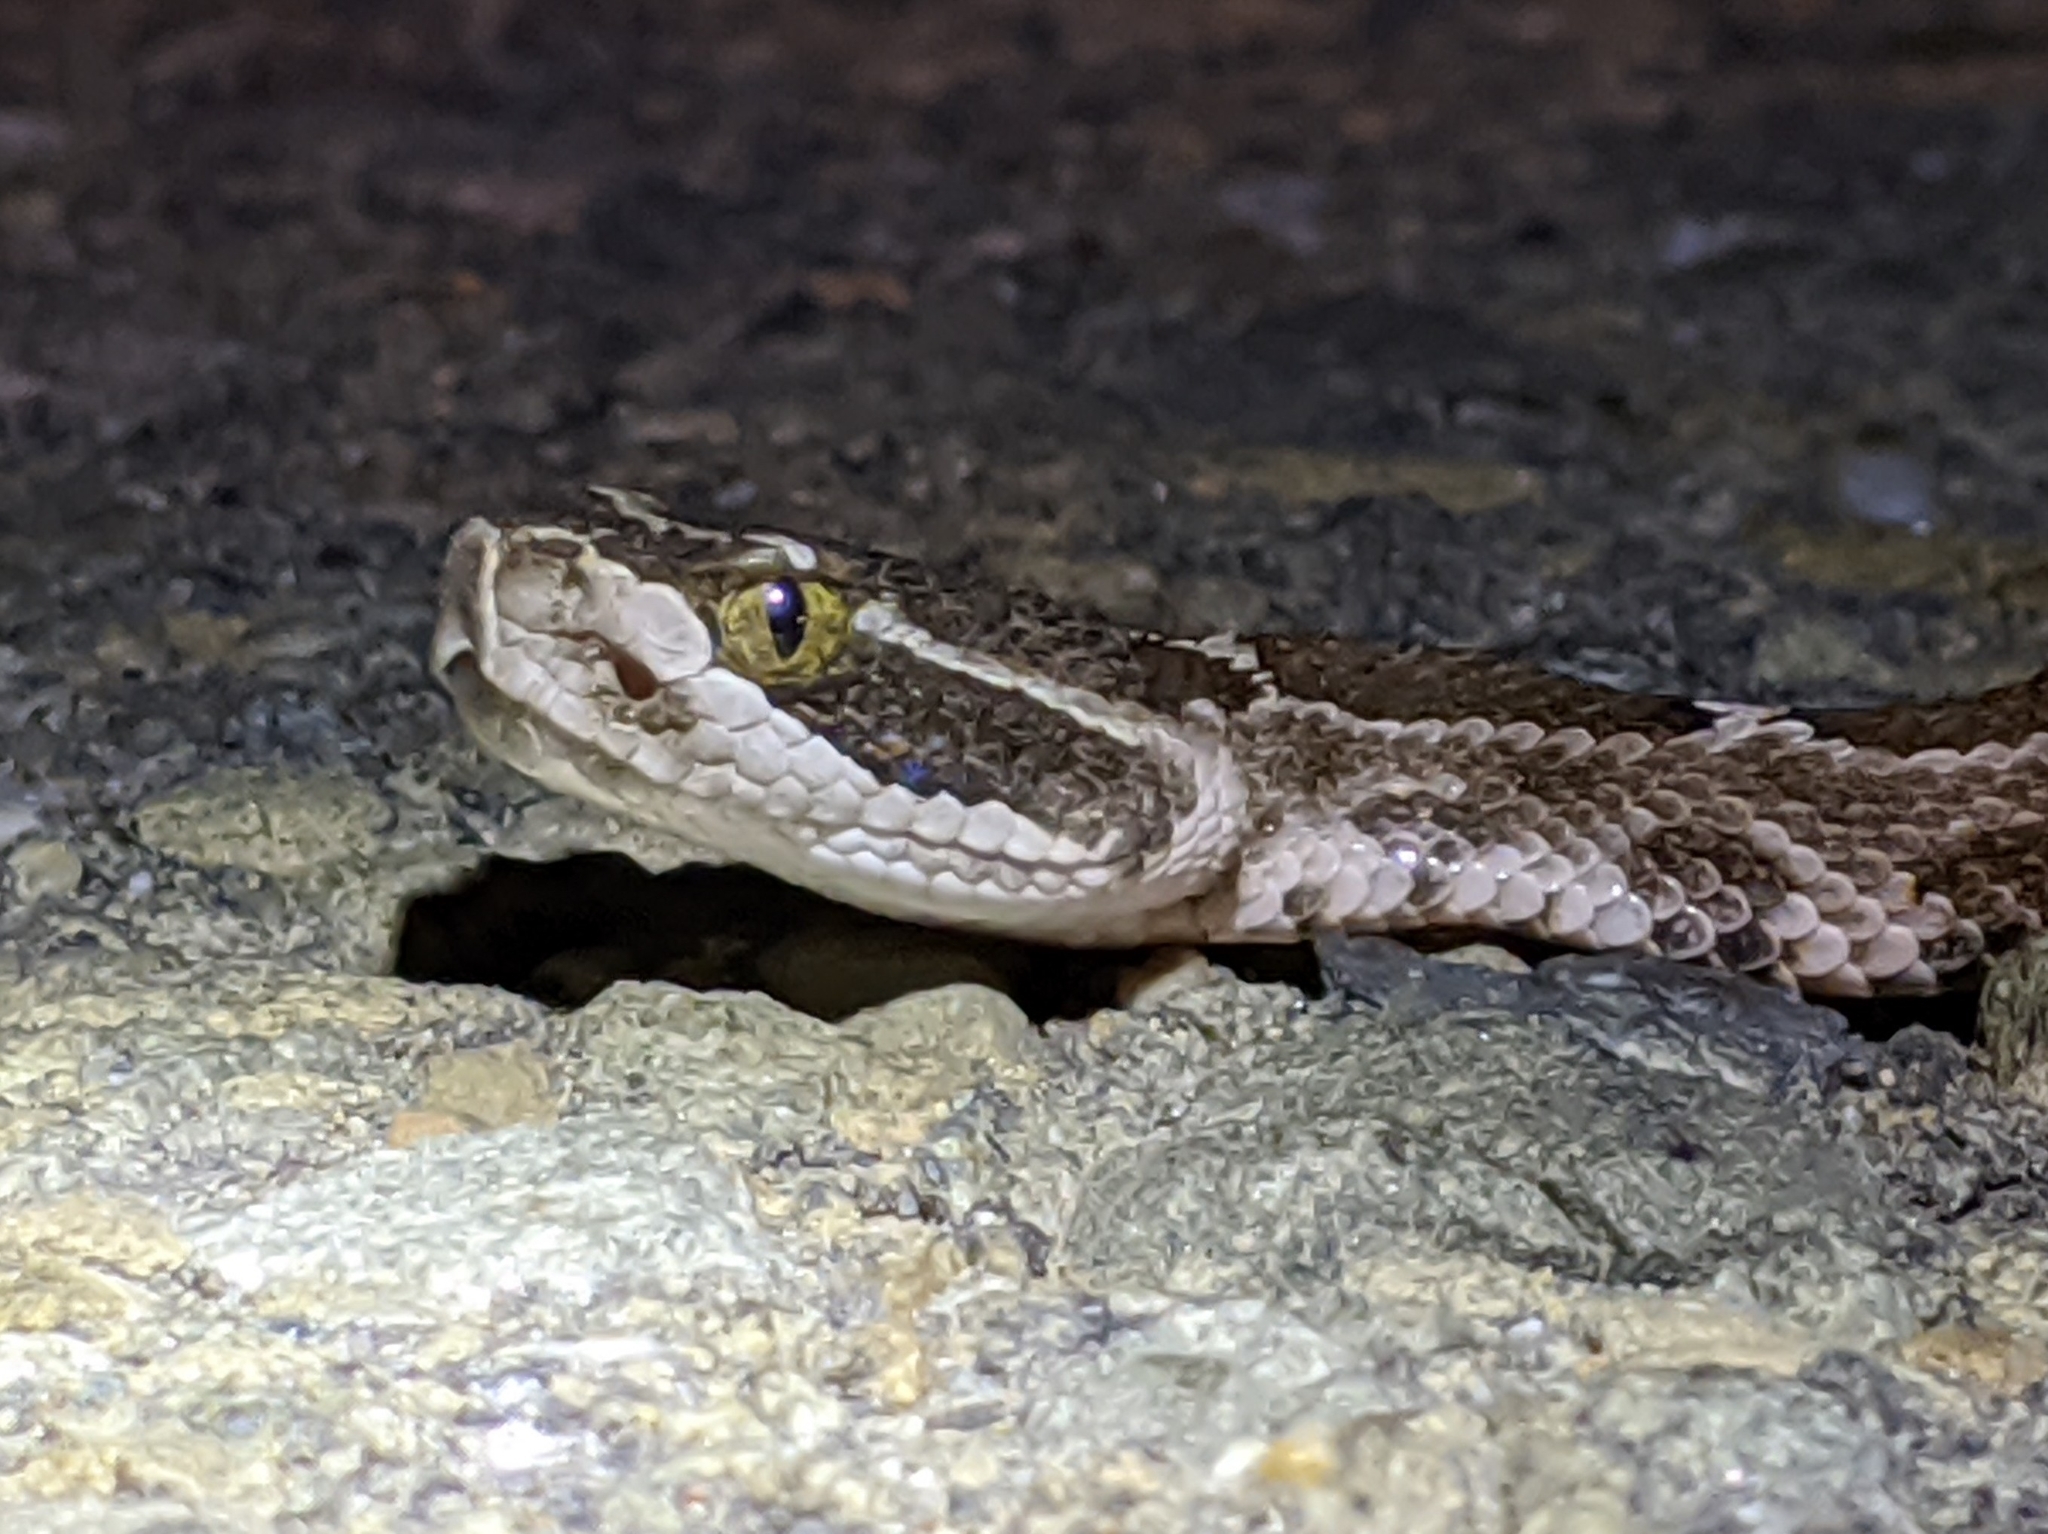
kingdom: Animalia
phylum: Chordata
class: Squamata
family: Viperidae
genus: Crotalus
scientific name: Crotalus oreganus
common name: Abyssus
